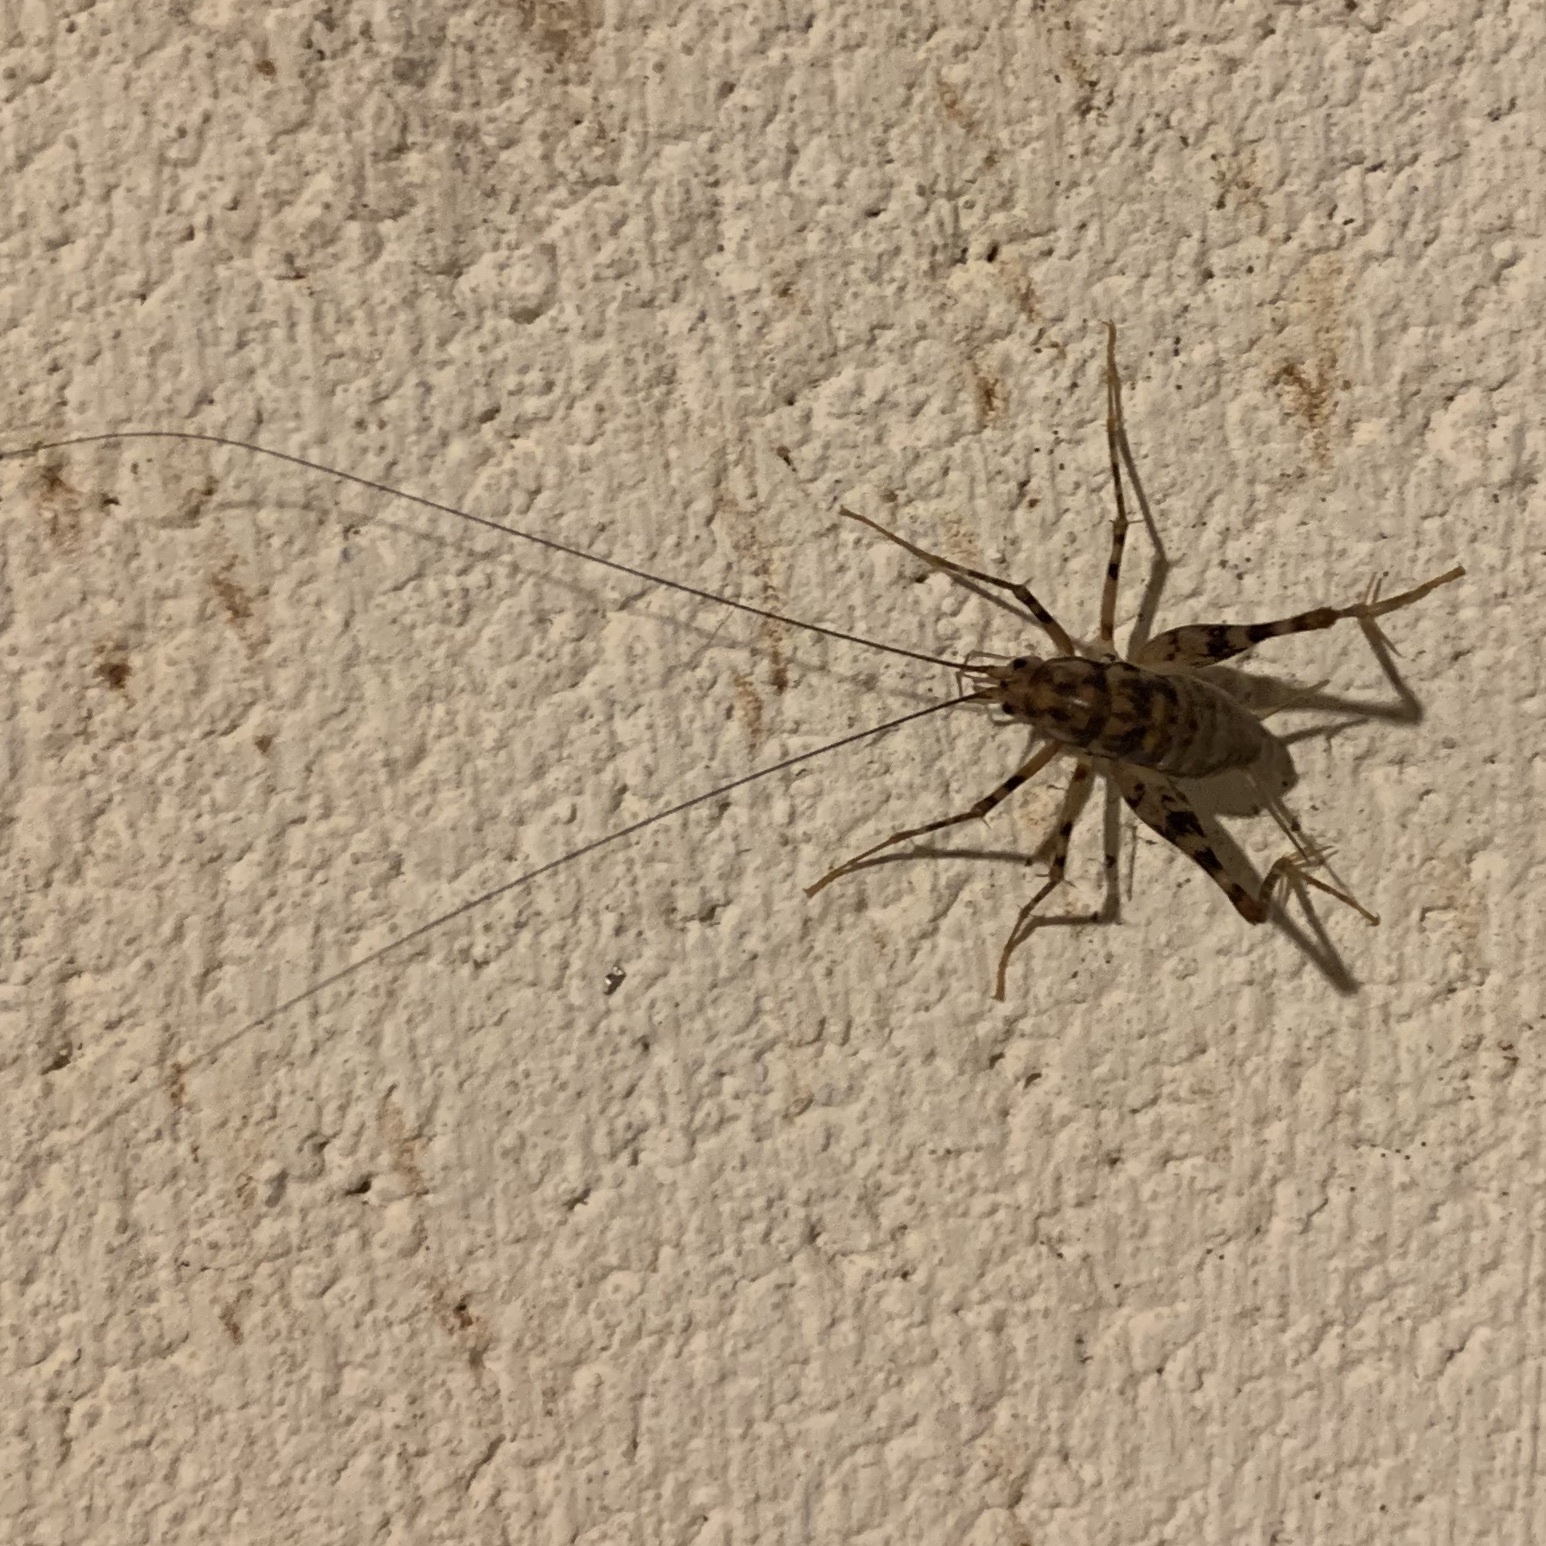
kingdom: Animalia
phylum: Arthropoda
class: Insecta
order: Orthoptera
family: Rhaphidophoridae
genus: Tachycines
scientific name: Tachycines asynamorus
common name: Greenhouse camel cricket
